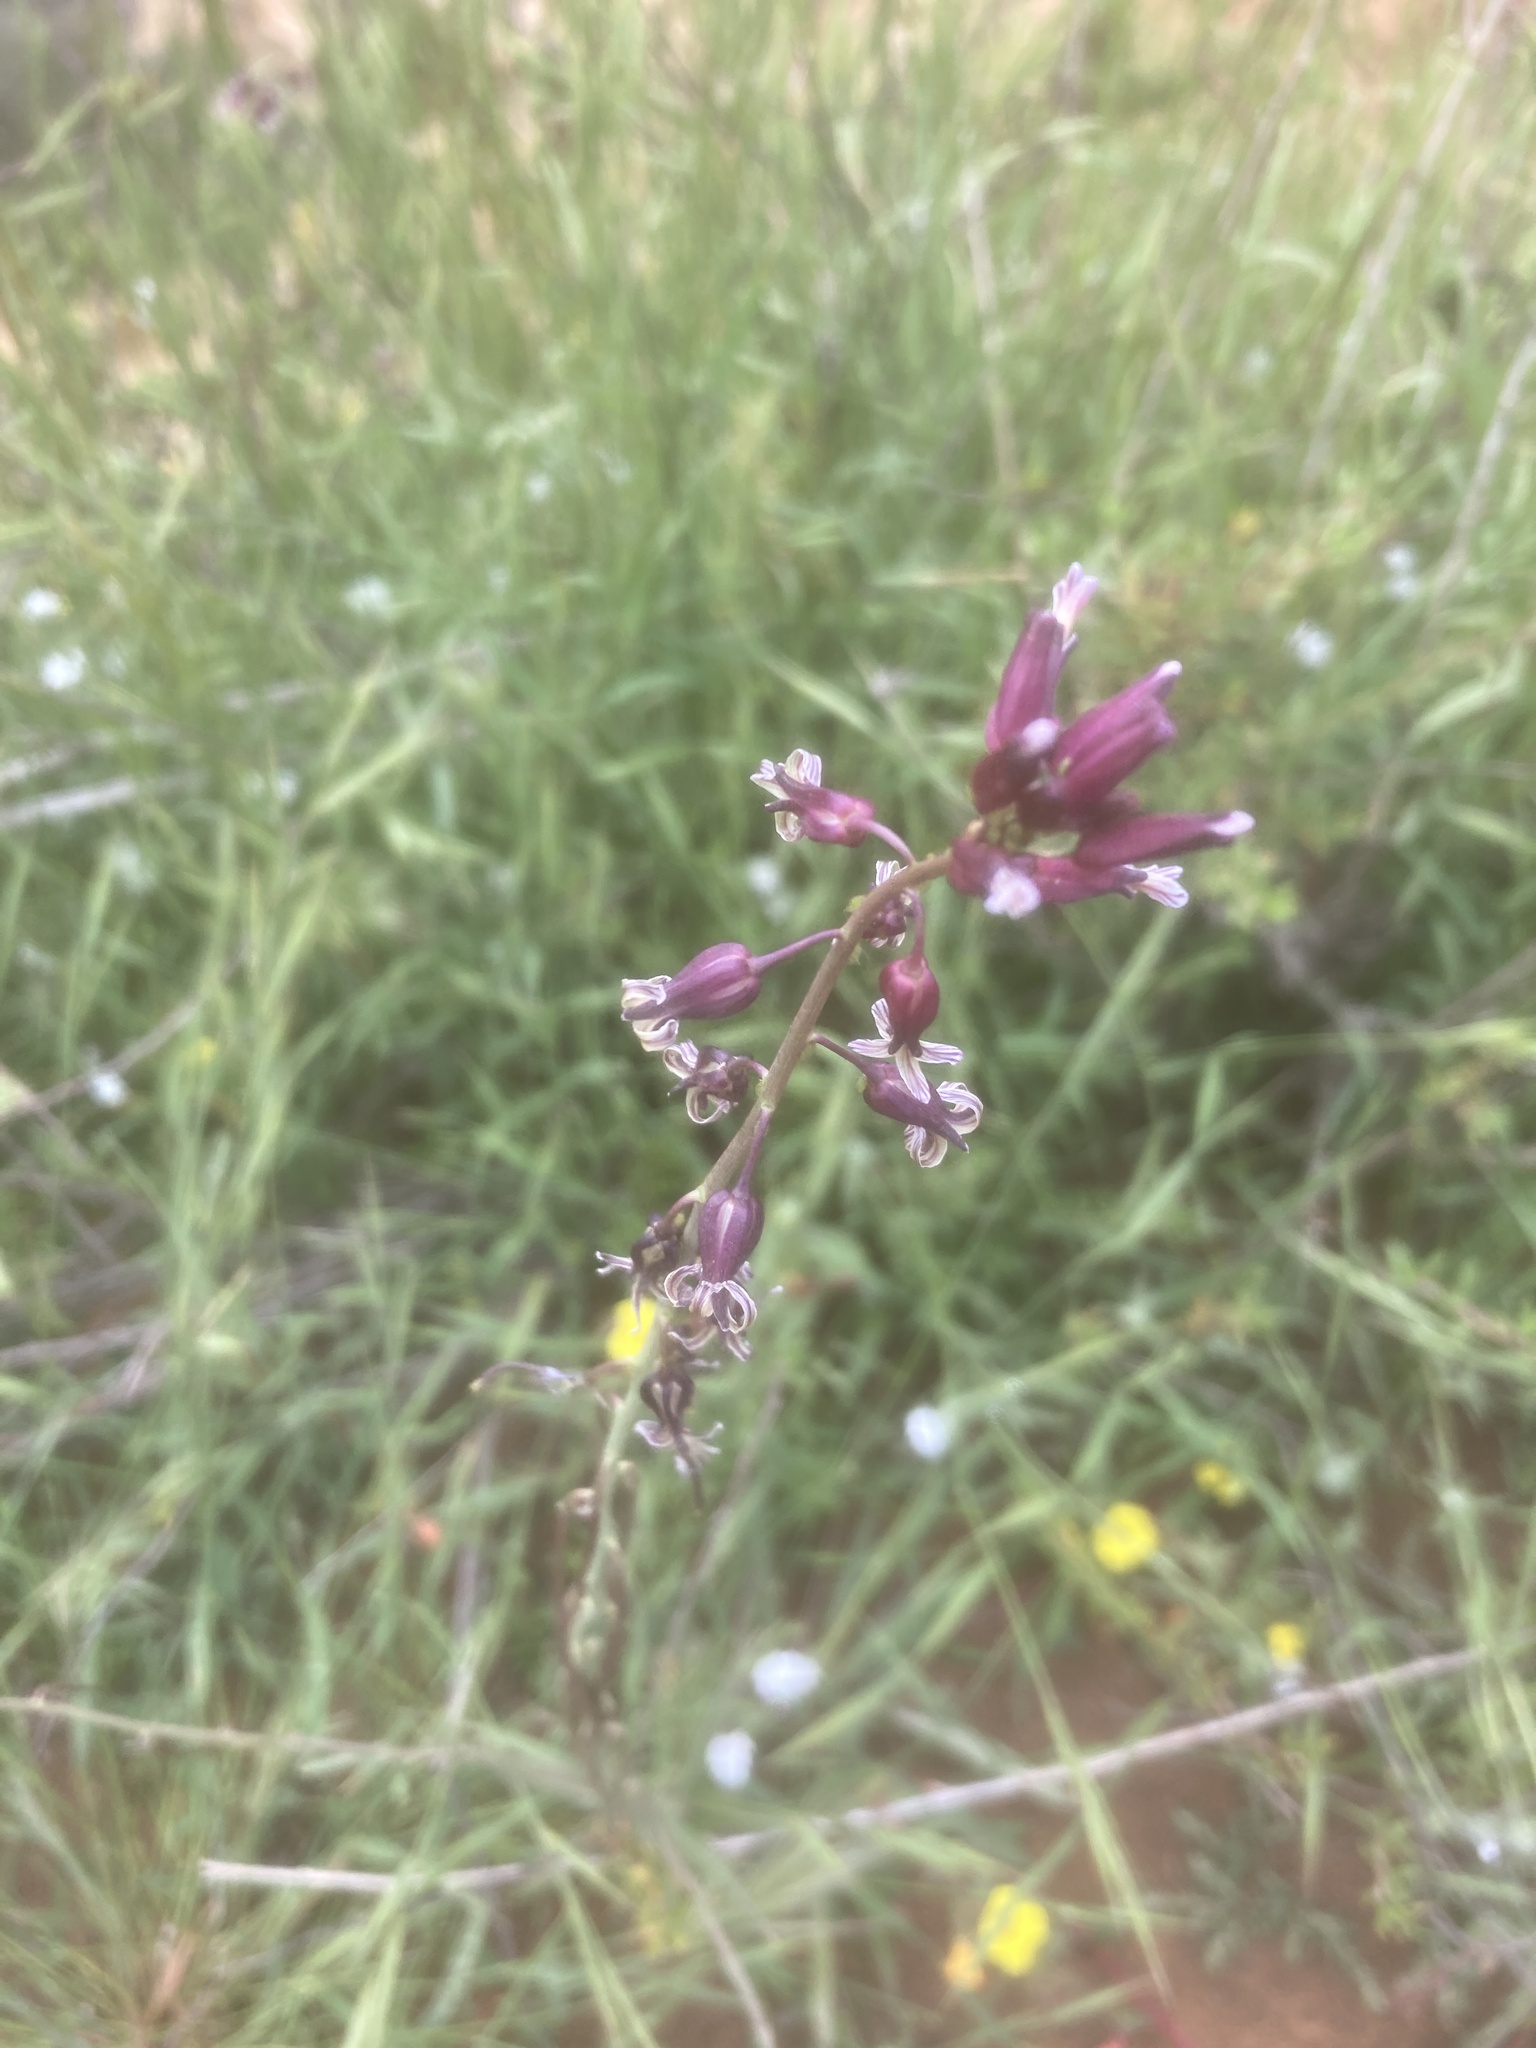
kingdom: Plantae
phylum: Tracheophyta
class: Magnoliopsida
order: Brassicales
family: Brassicaceae
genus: Streptanthus
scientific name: Streptanthus heterophyllus
